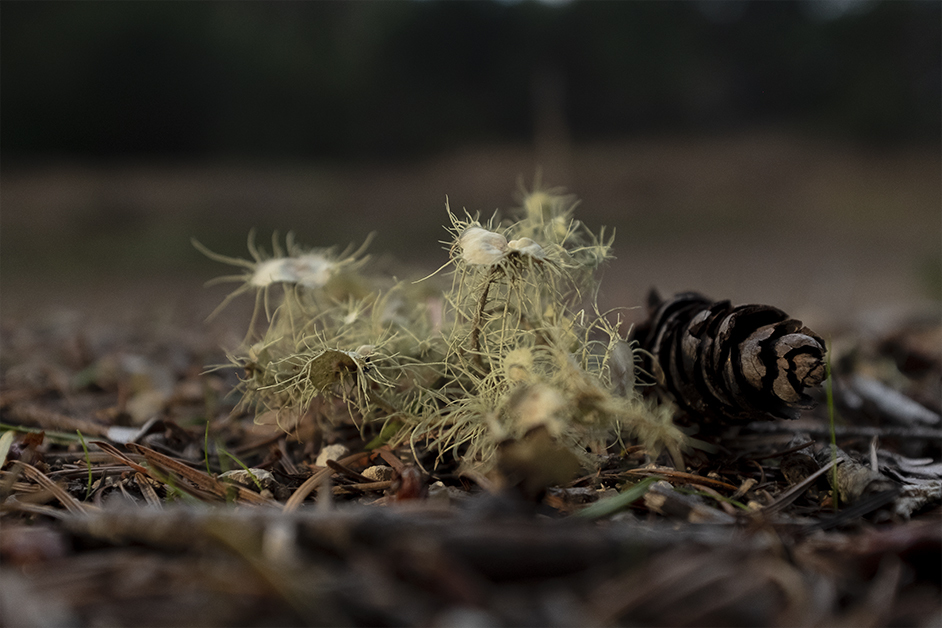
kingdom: Fungi
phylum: Ascomycota
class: Lecanoromycetes
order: Lecanorales
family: Parmeliaceae
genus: Usnea
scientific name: Usnea intermedia
